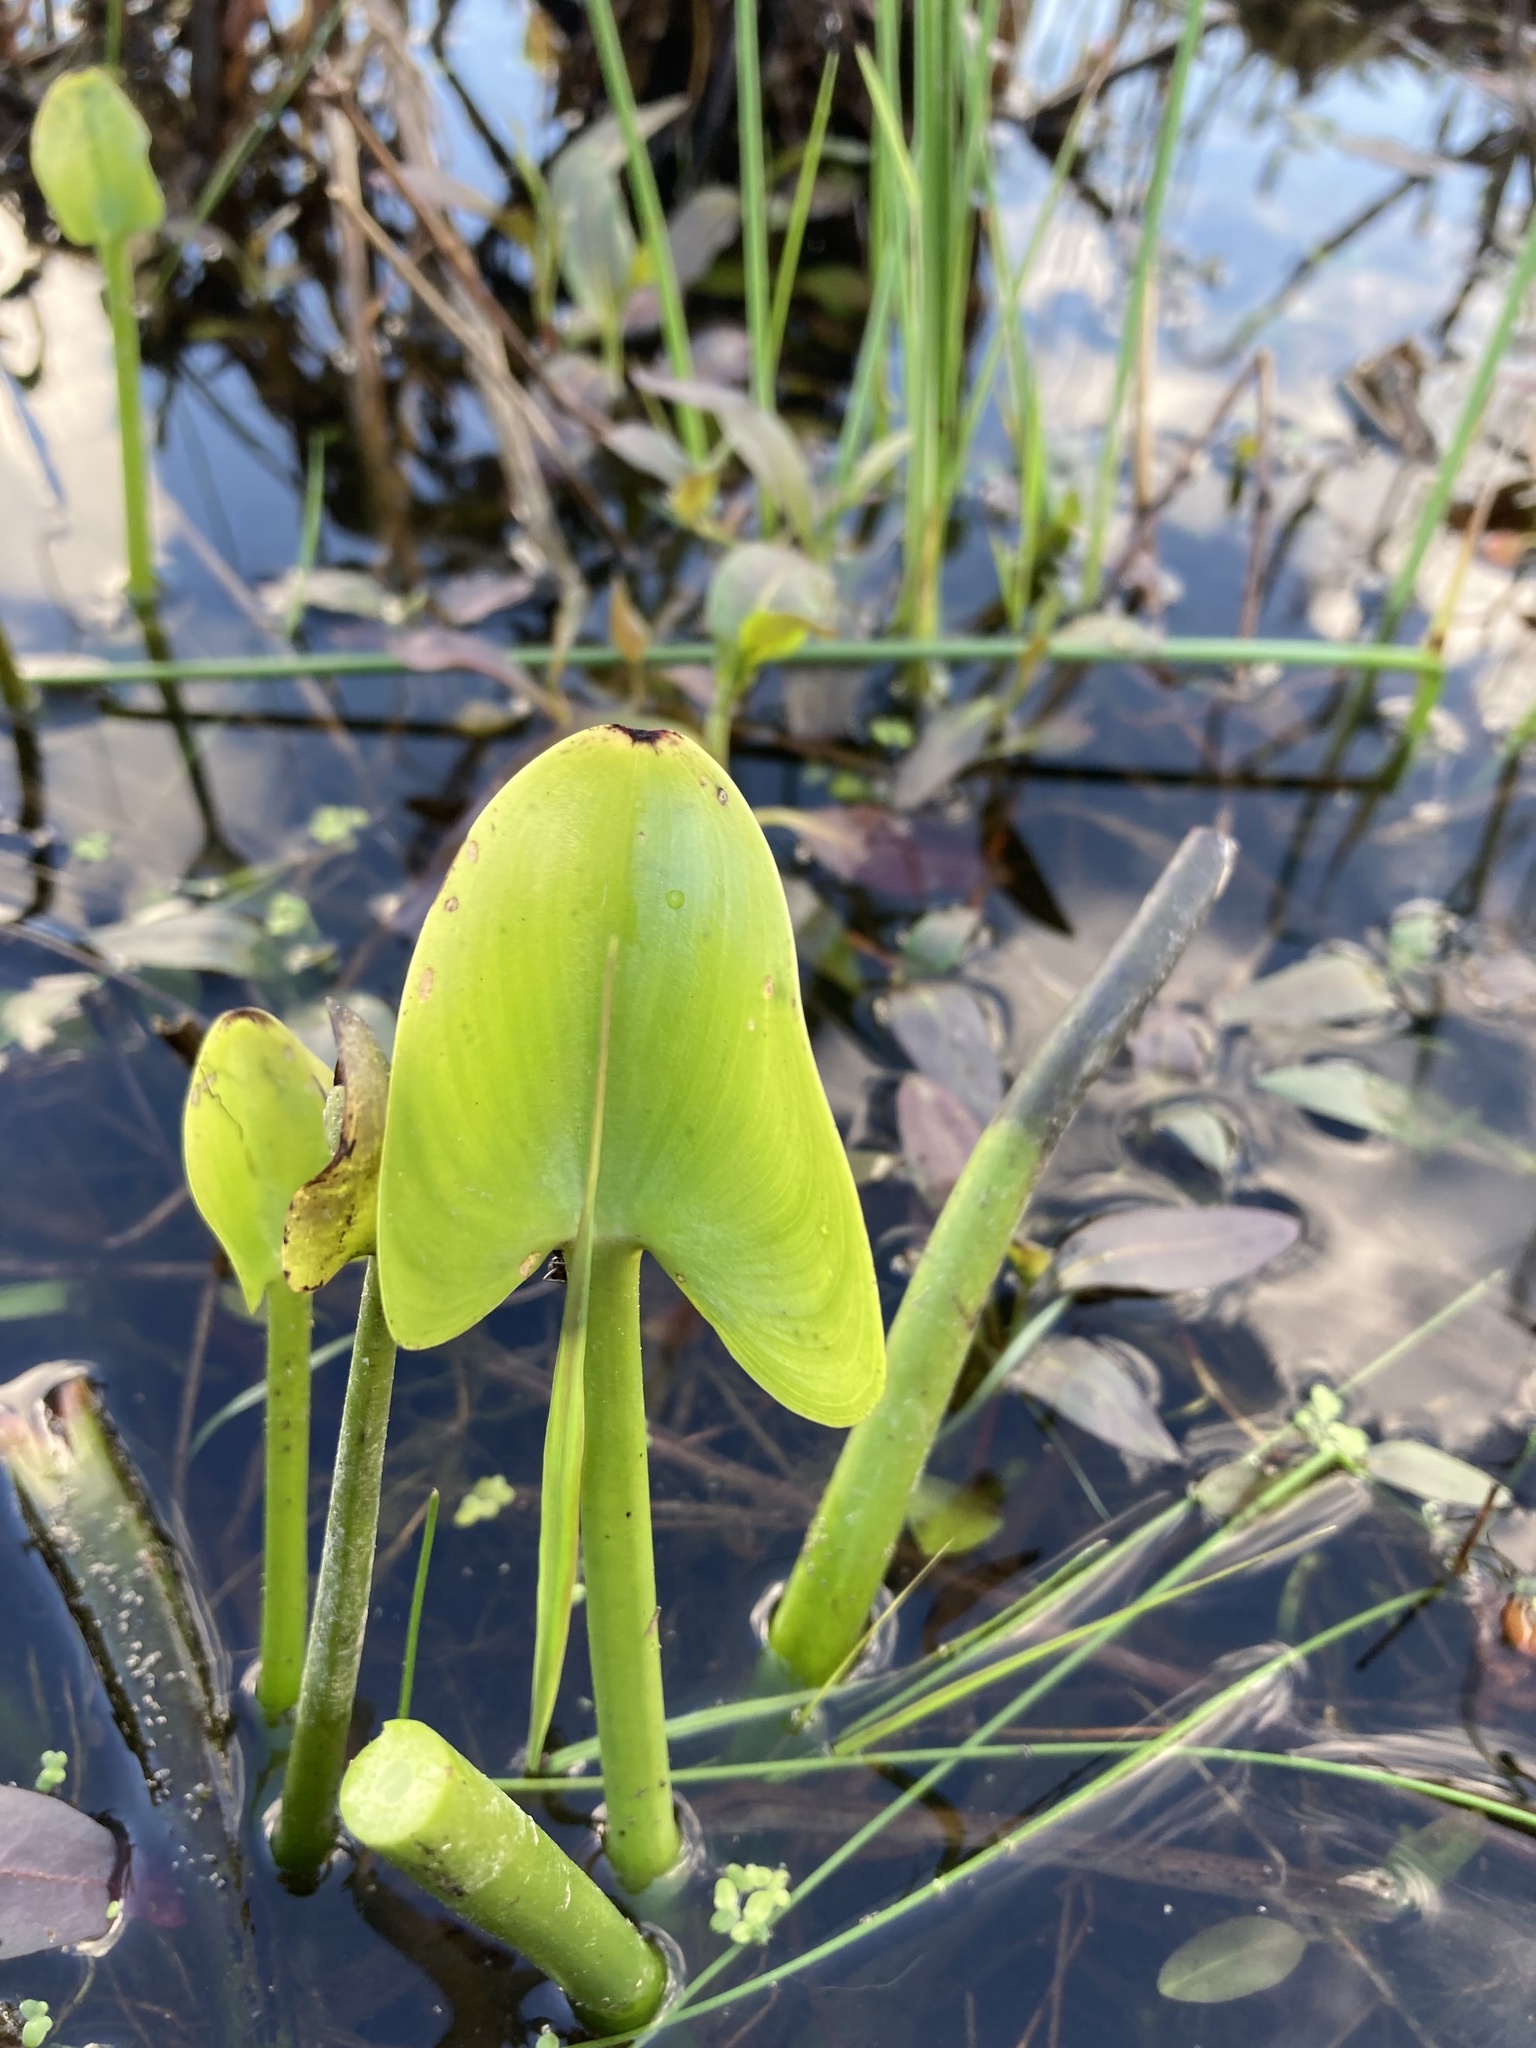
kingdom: Plantae
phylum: Tracheophyta
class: Liliopsida
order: Commelinales
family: Pontederiaceae
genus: Pontederia
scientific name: Pontederia cordata
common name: Pickerelweed
